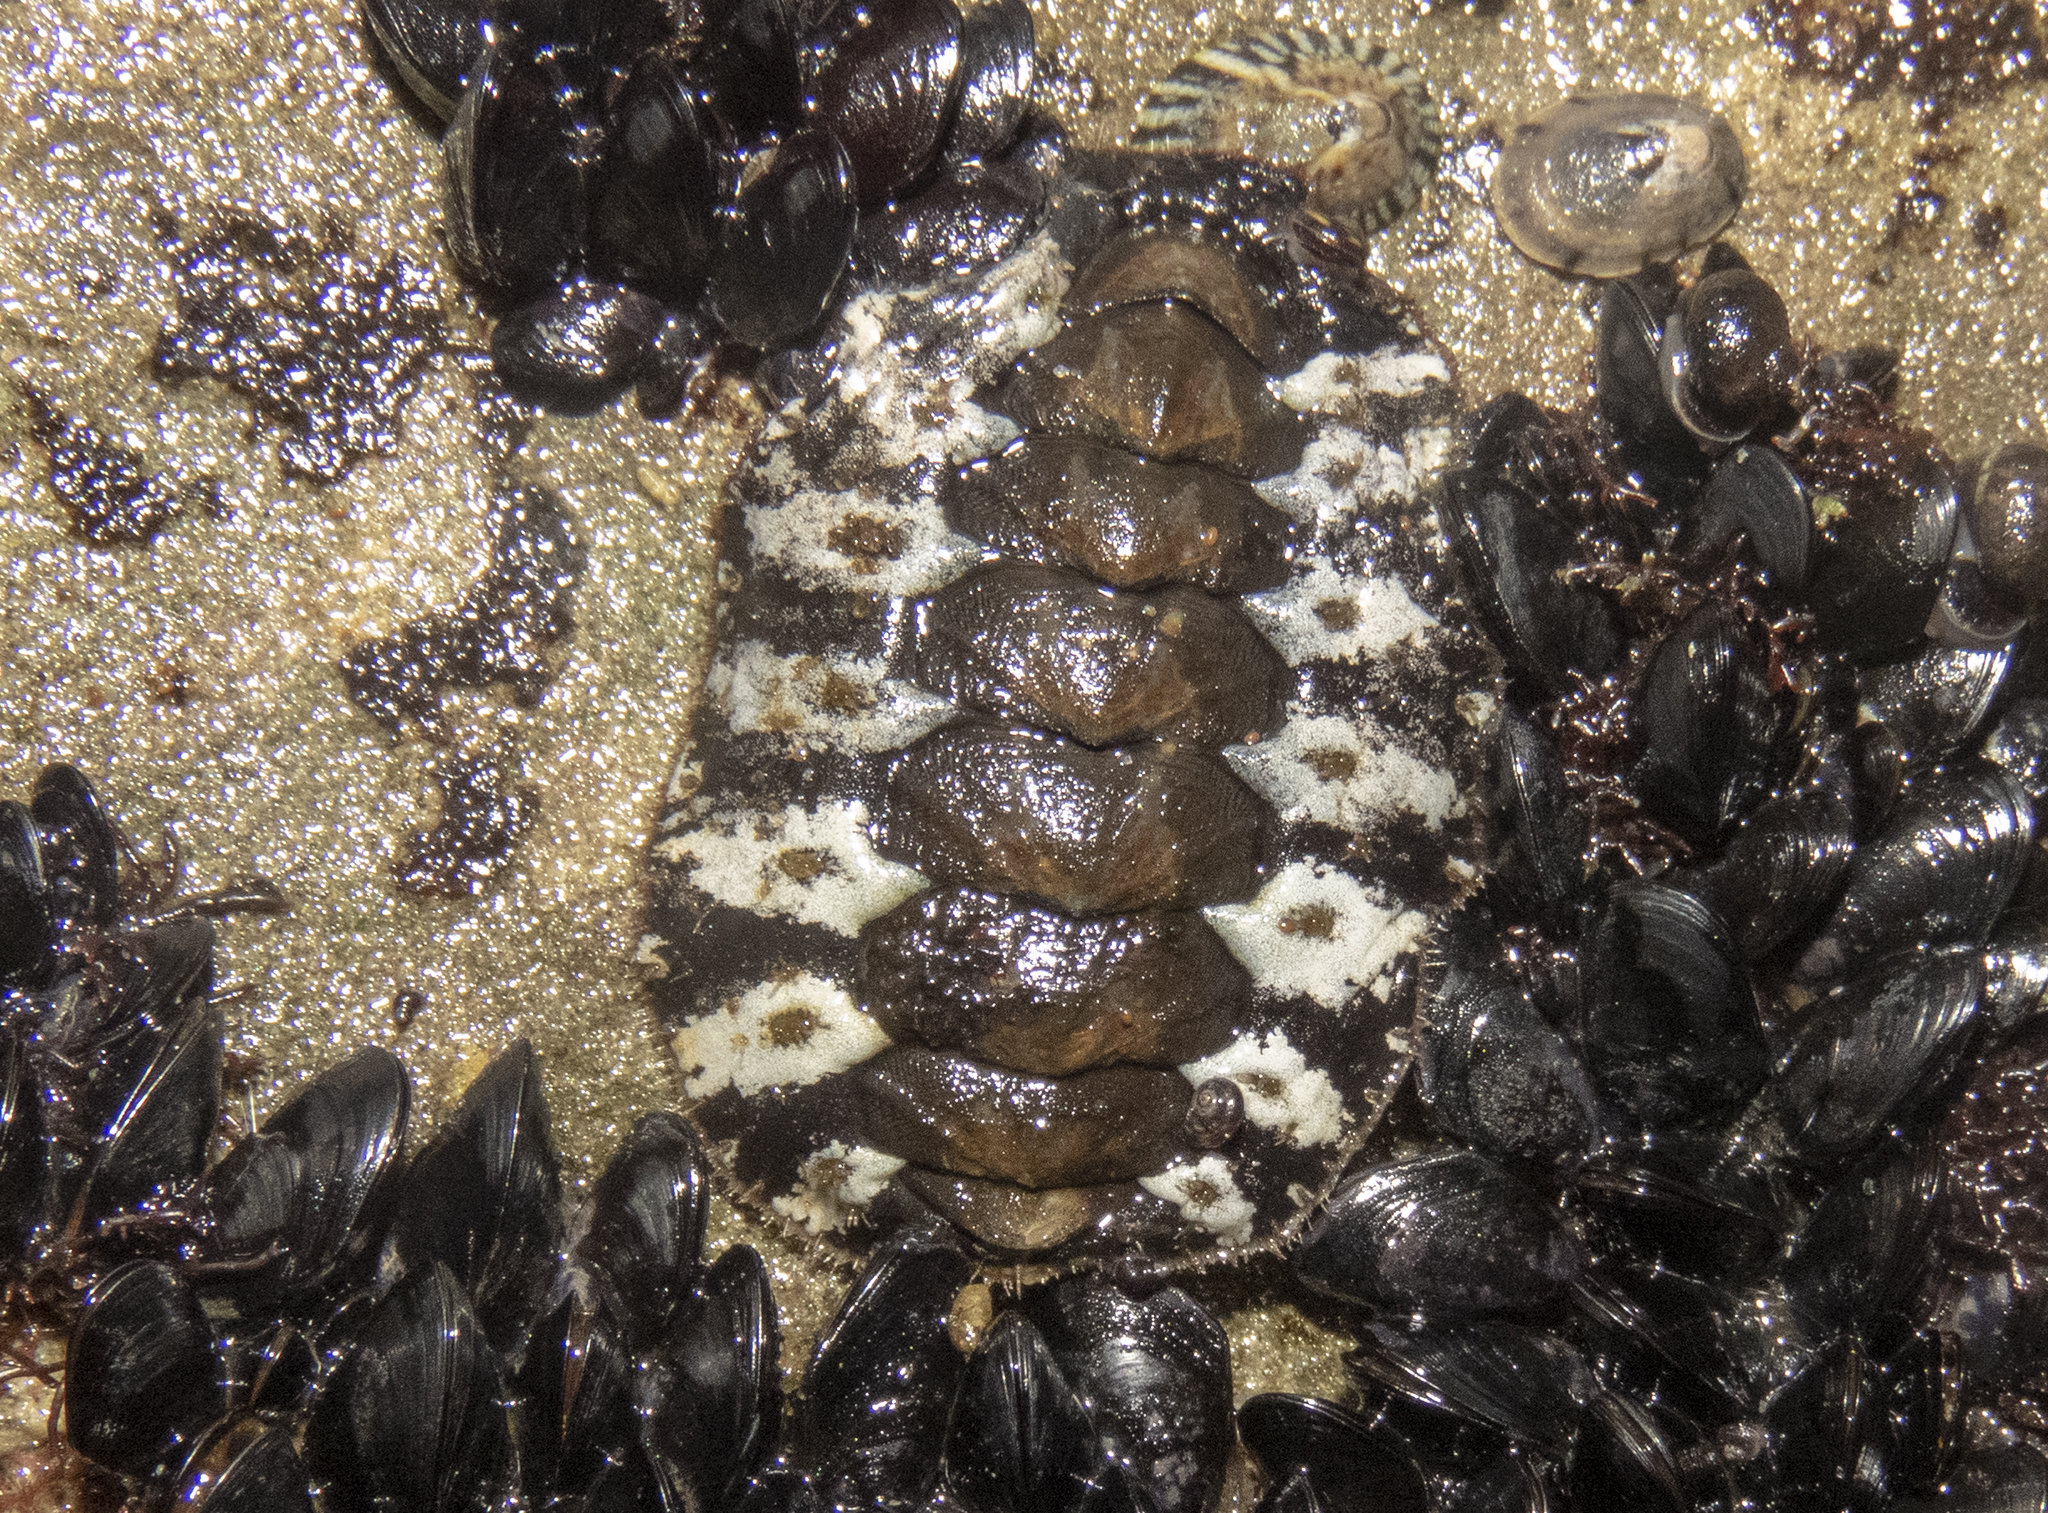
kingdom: Animalia
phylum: Mollusca
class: Polyplacophora
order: Chitonida
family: Mopaliidae
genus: Plaxiphora
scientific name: Plaxiphora caelata
